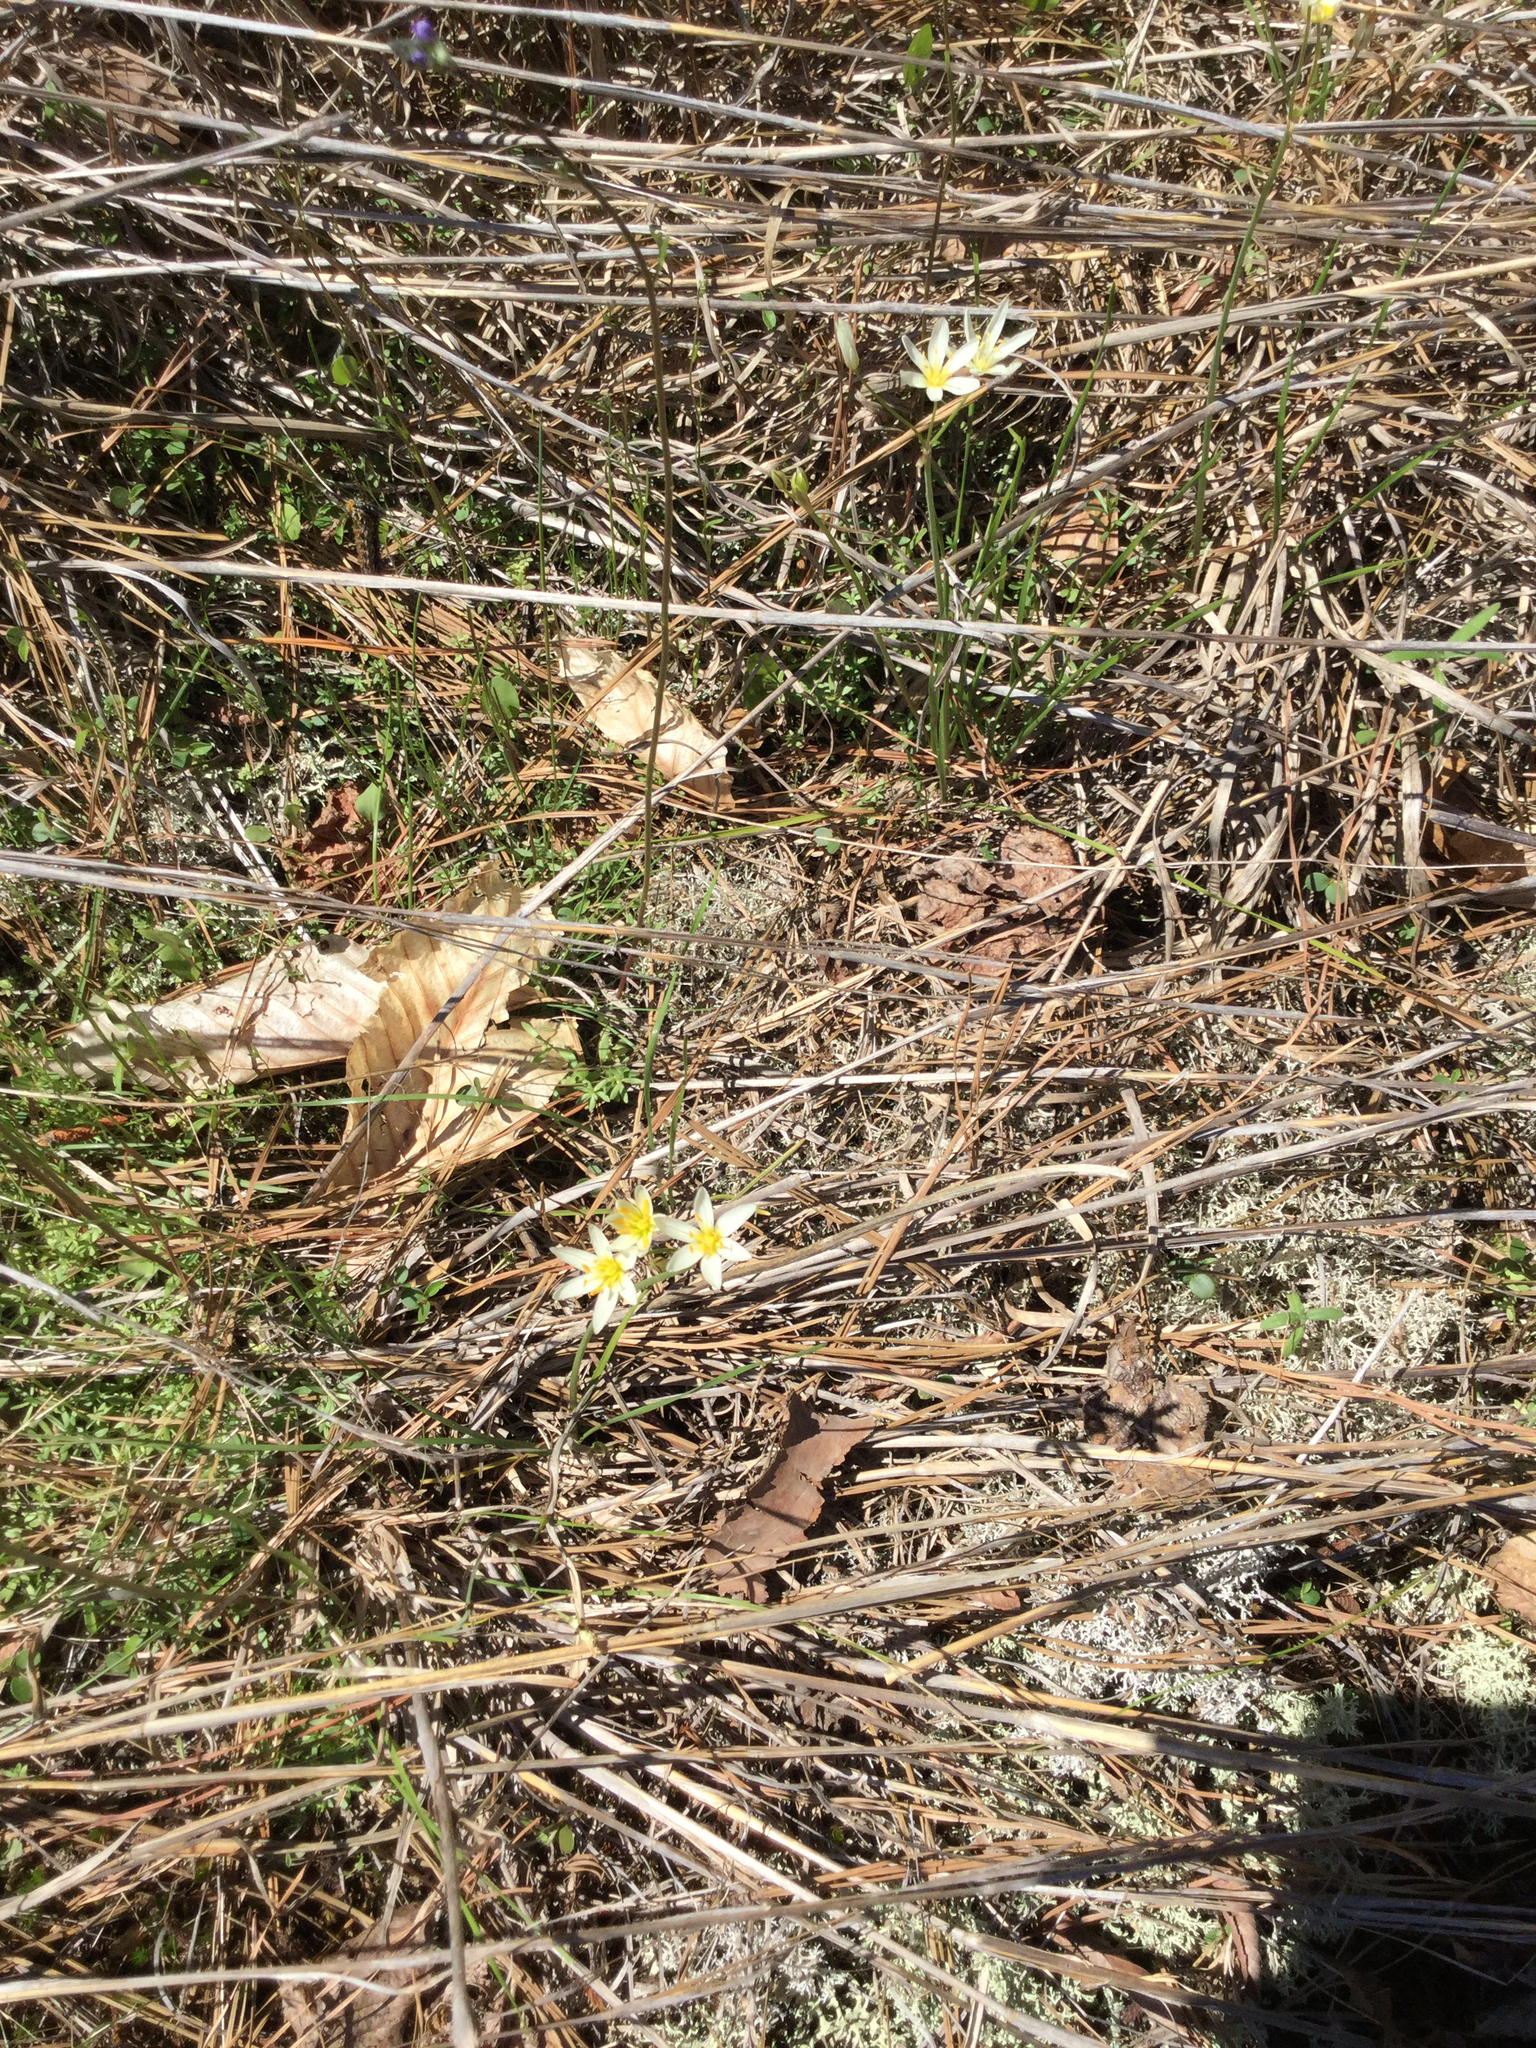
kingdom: Plantae
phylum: Tracheophyta
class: Liliopsida
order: Asparagales
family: Amaryllidaceae
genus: Nothoscordum
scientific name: Nothoscordum bivalve
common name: Crow-poison
